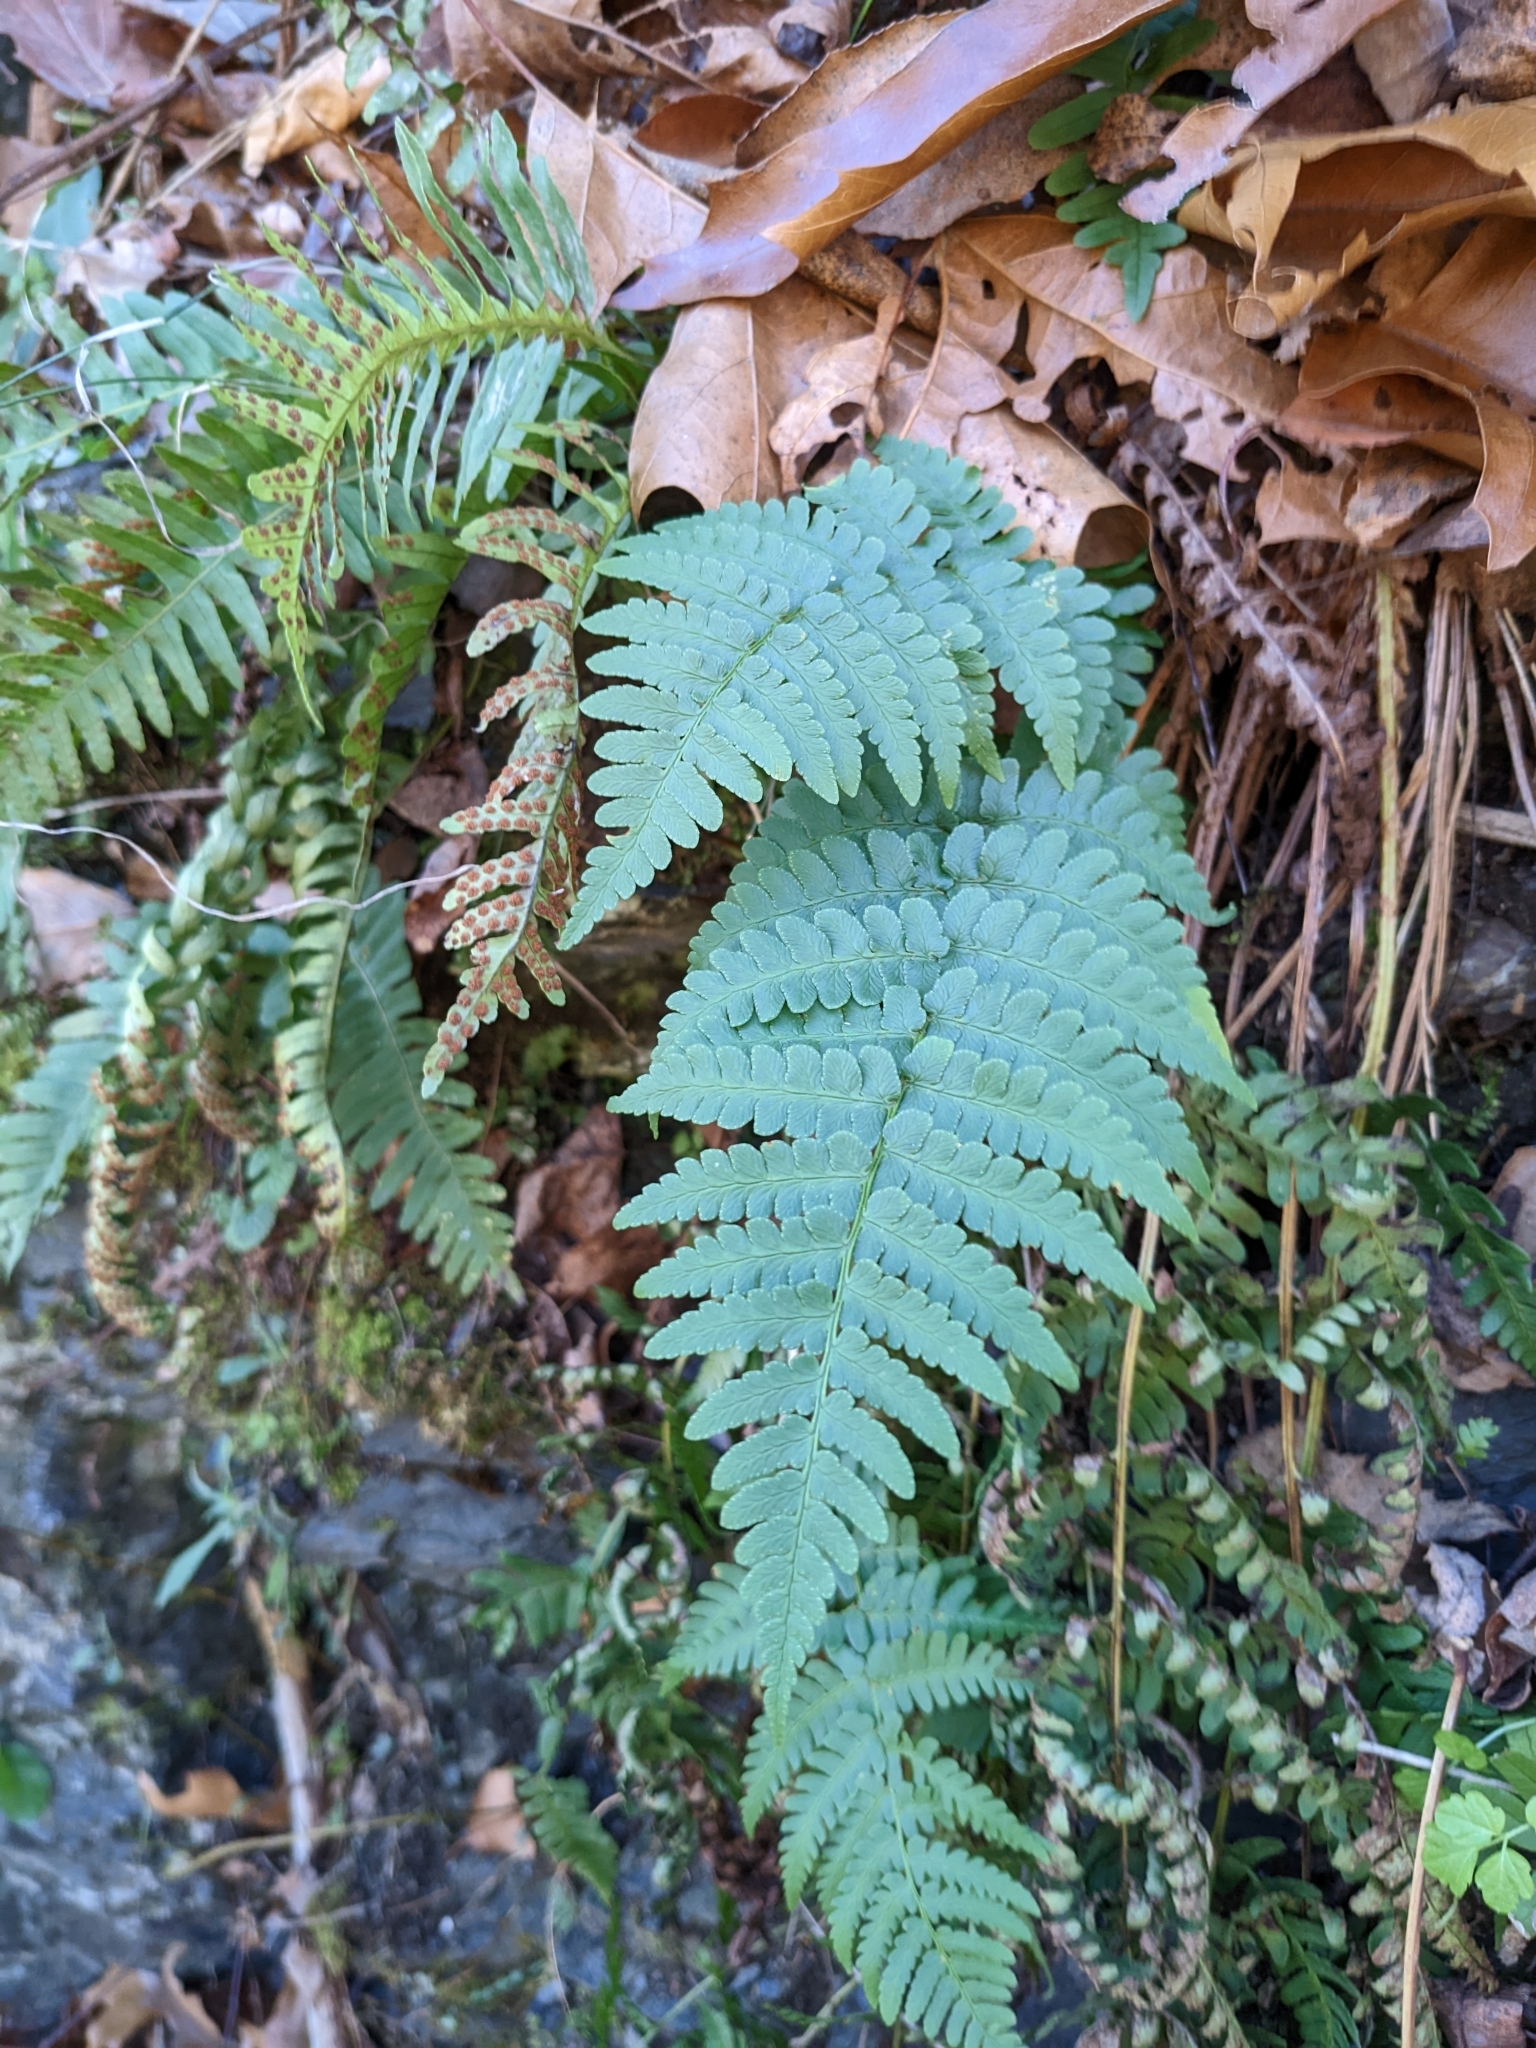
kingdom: Plantae
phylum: Tracheophyta
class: Polypodiopsida
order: Polypodiales
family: Dryopteridaceae
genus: Dryopteris
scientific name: Dryopteris marginalis
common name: Marginal wood fern
